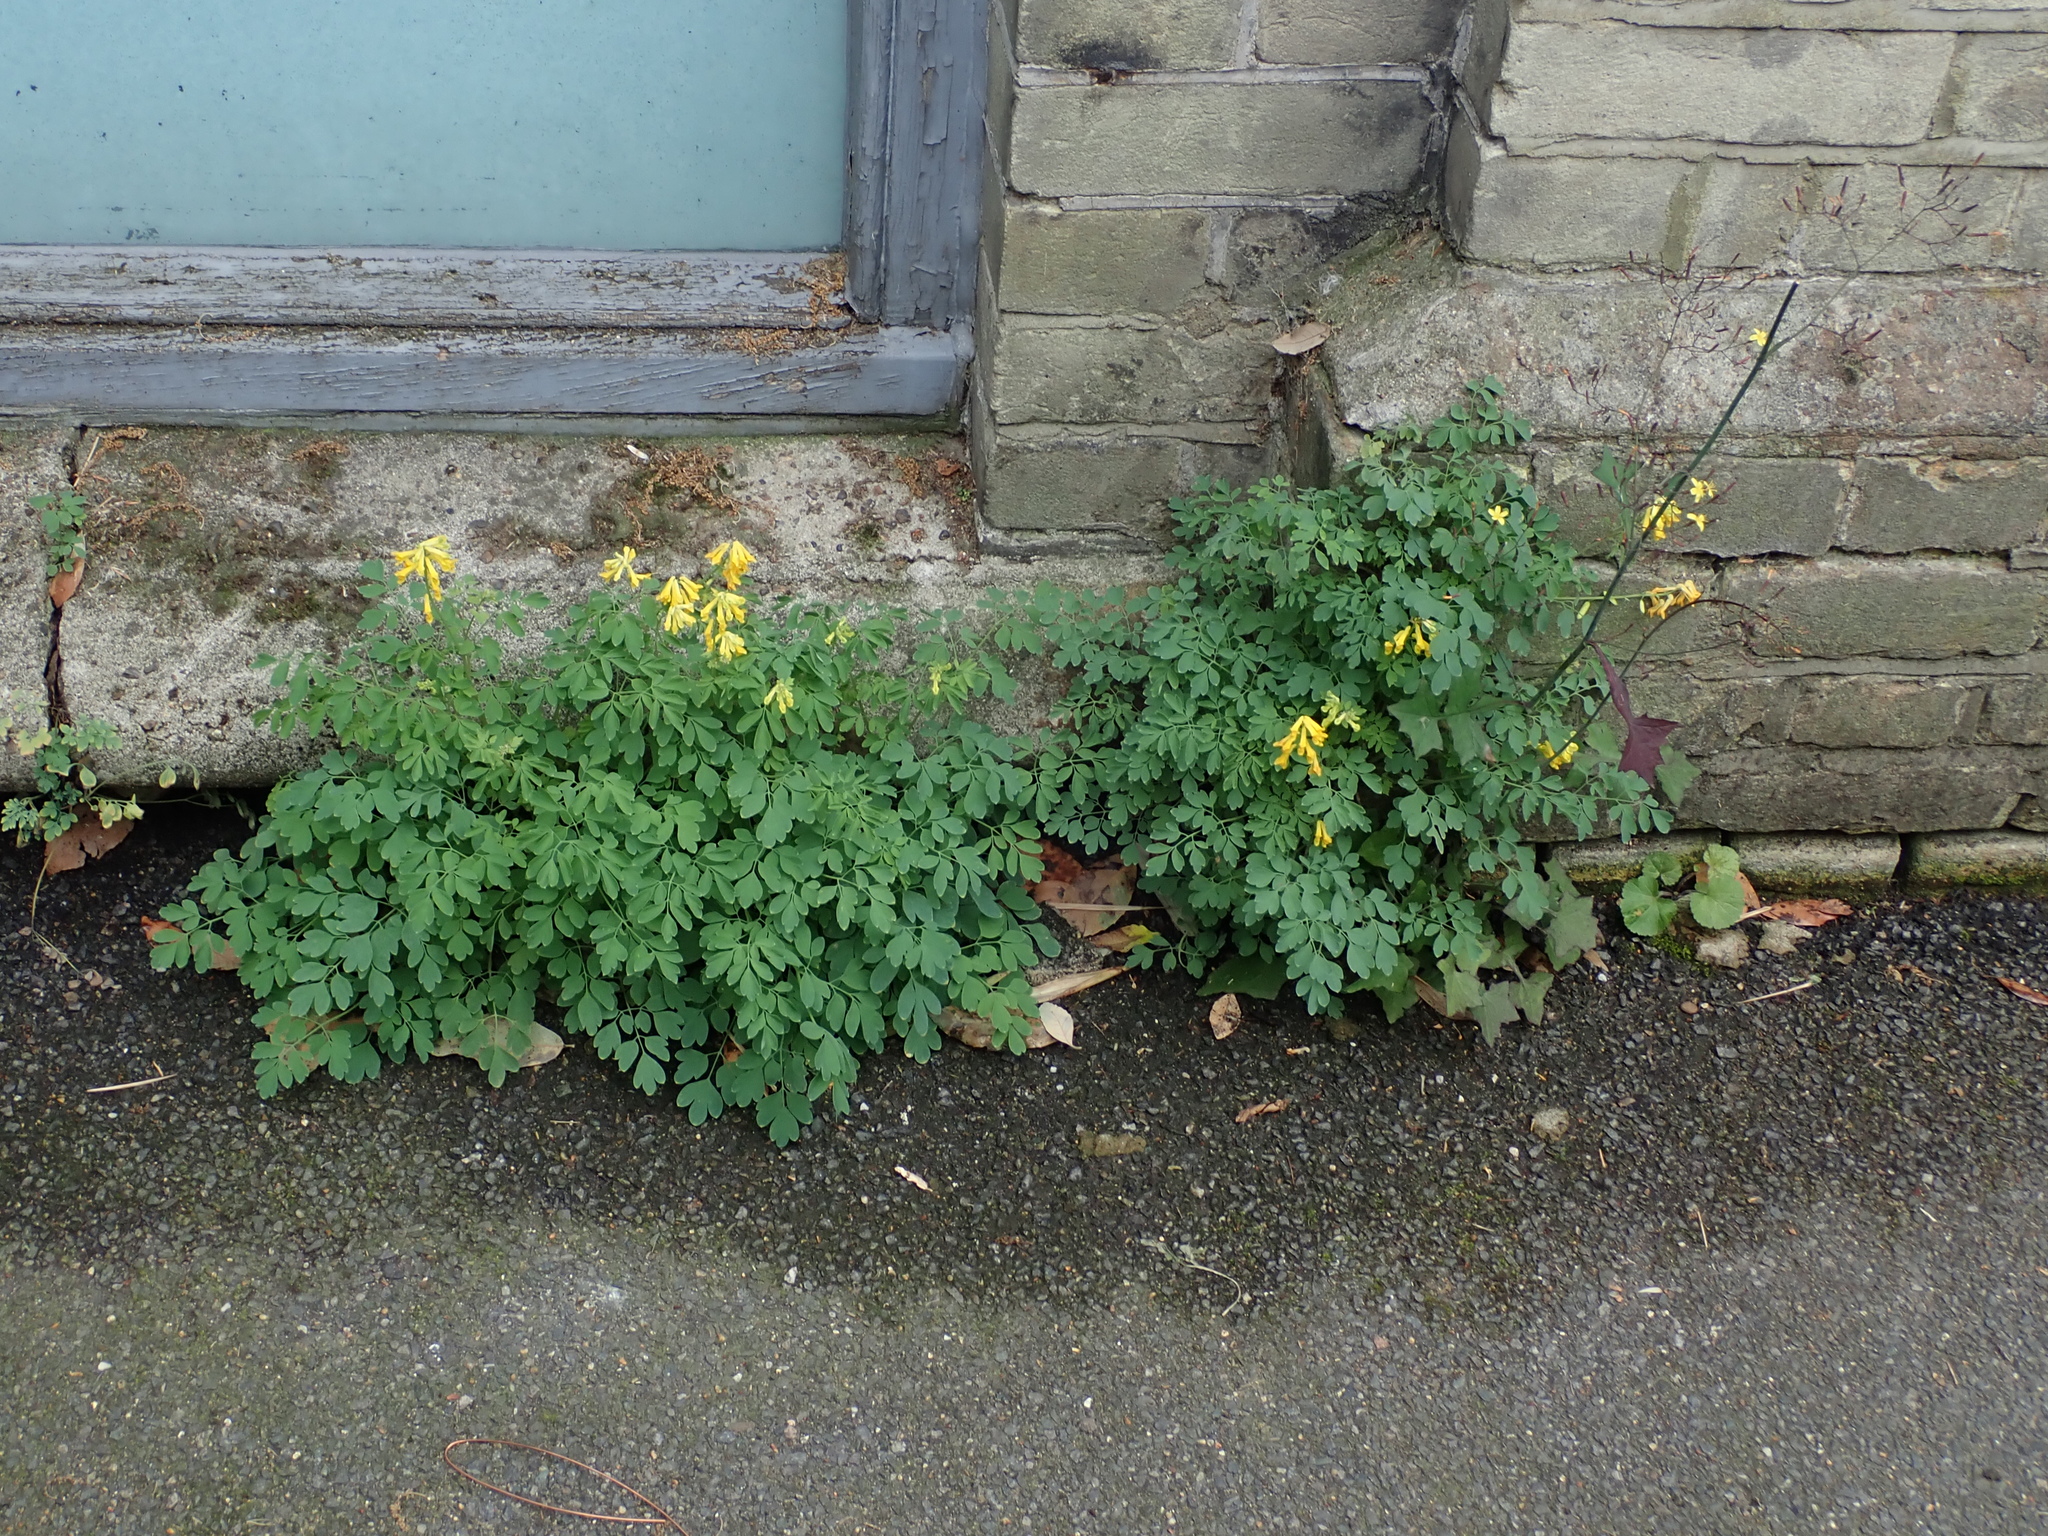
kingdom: Plantae
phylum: Tracheophyta
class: Magnoliopsida
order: Ranunculales
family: Papaveraceae
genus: Pseudofumaria
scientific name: Pseudofumaria lutea
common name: Yellow corydalis
